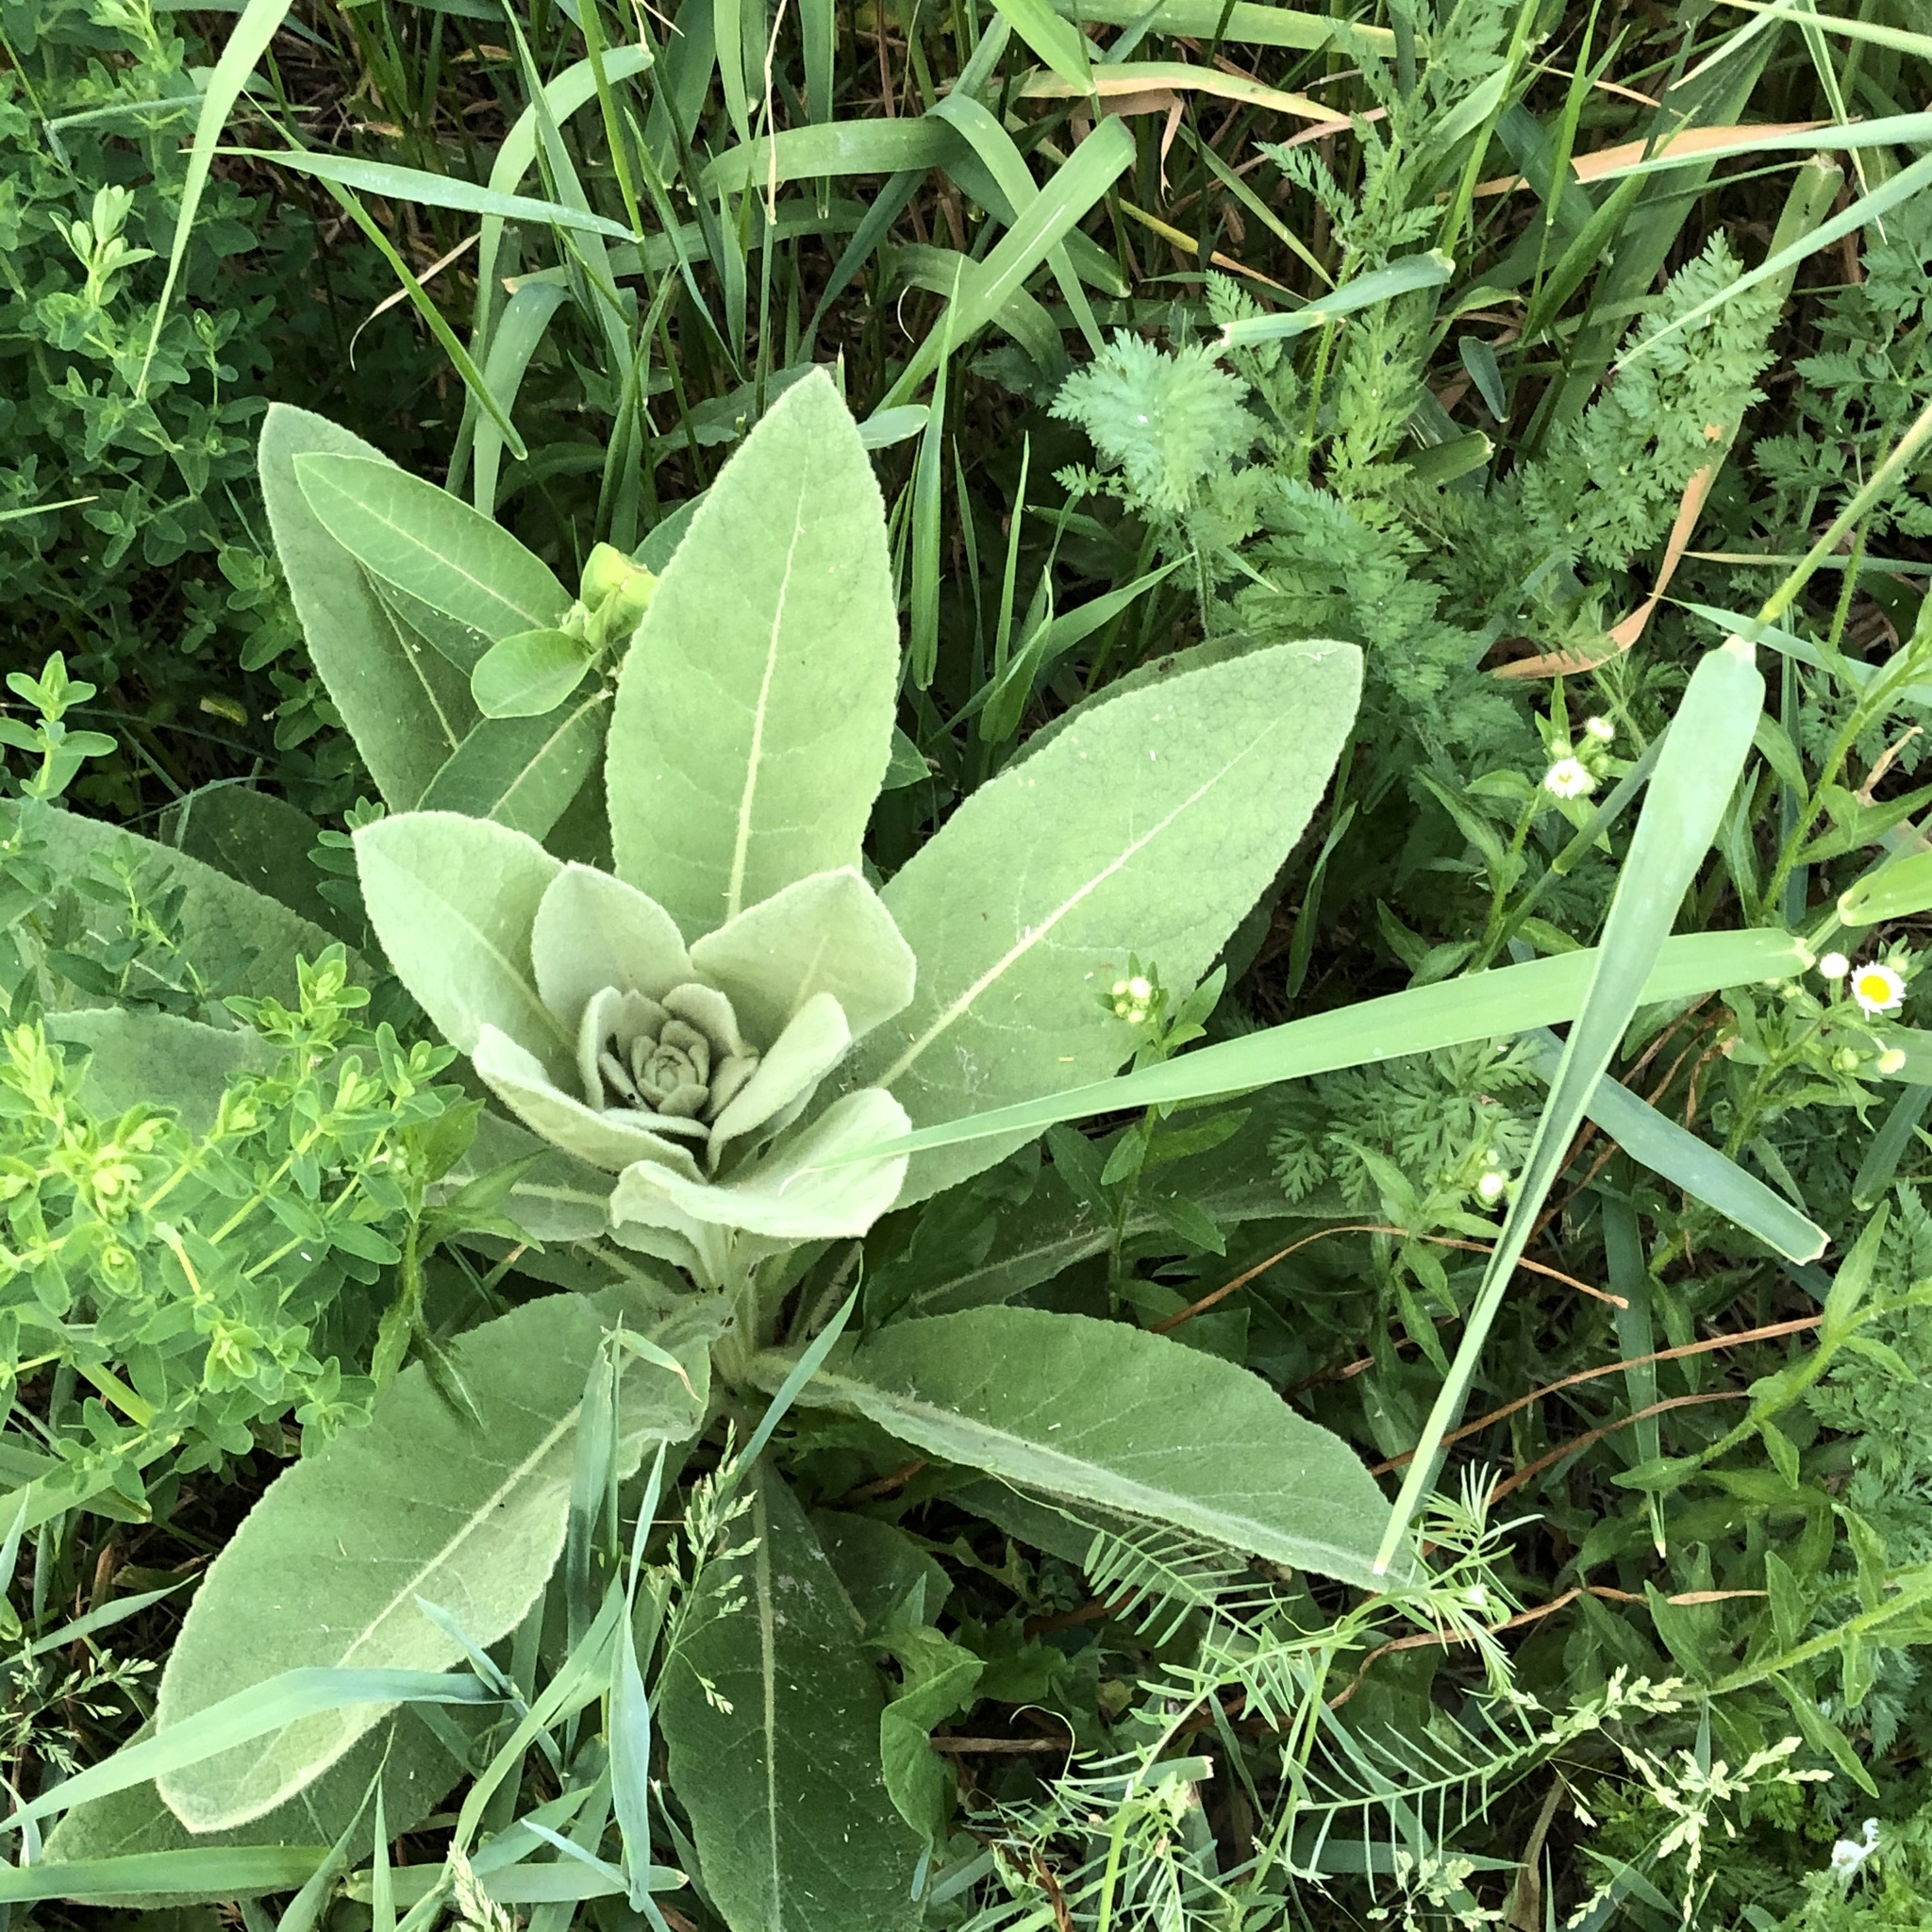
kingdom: Plantae
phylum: Tracheophyta
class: Magnoliopsida
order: Lamiales
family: Scrophulariaceae
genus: Verbascum
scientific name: Verbascum thapsus
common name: Common mullein
